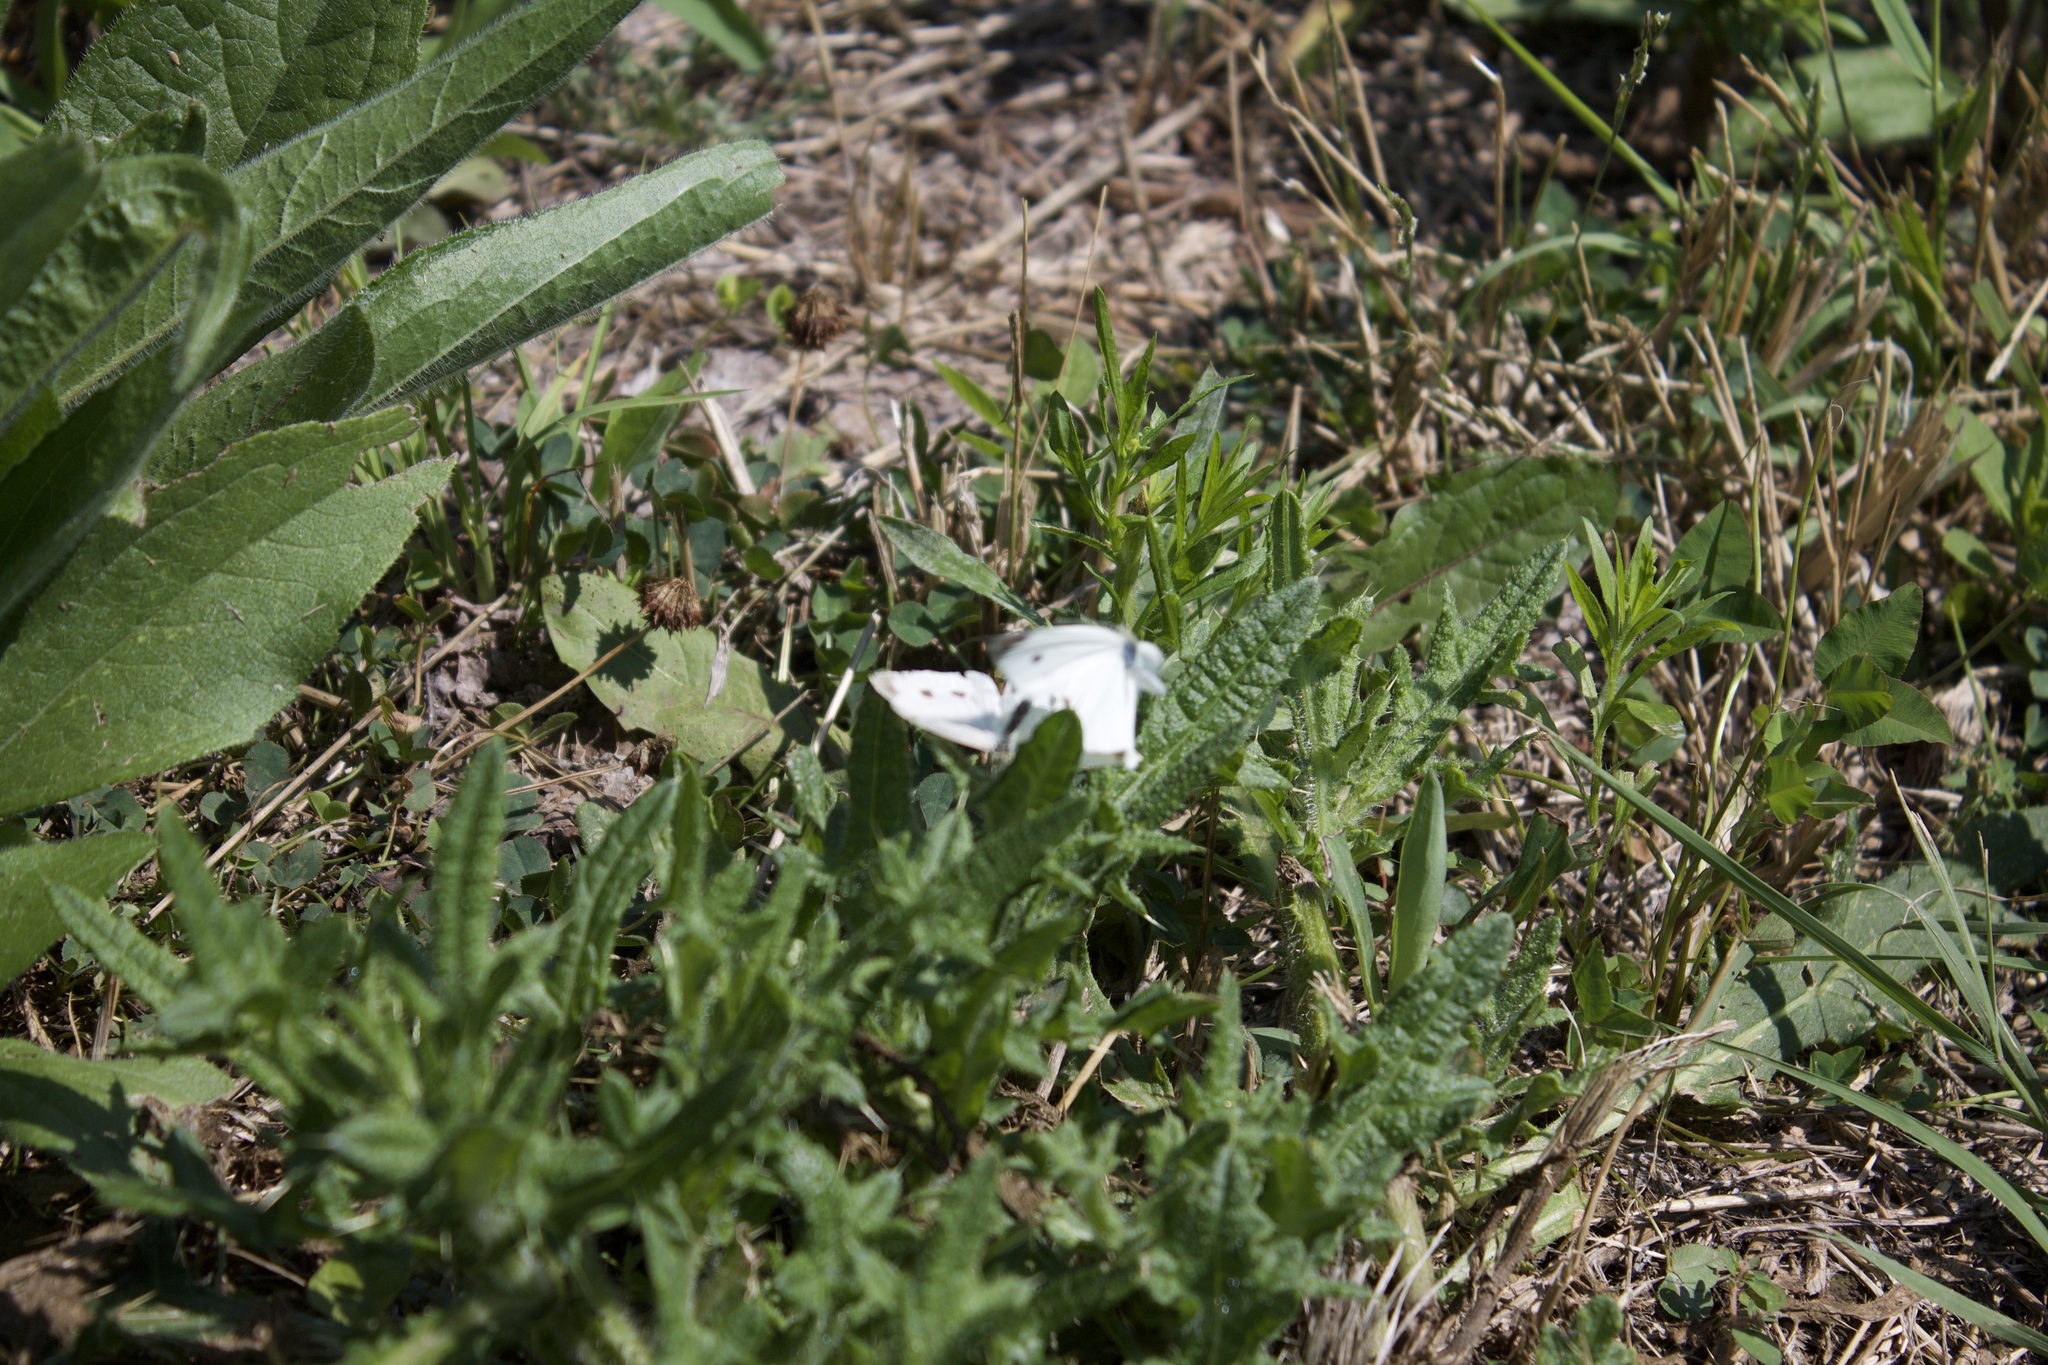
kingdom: Animalia
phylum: Arthropoda
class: Insecta
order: Lepidoptera
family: Pieridae
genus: Pieris
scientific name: Pieris rapae
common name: Small white
